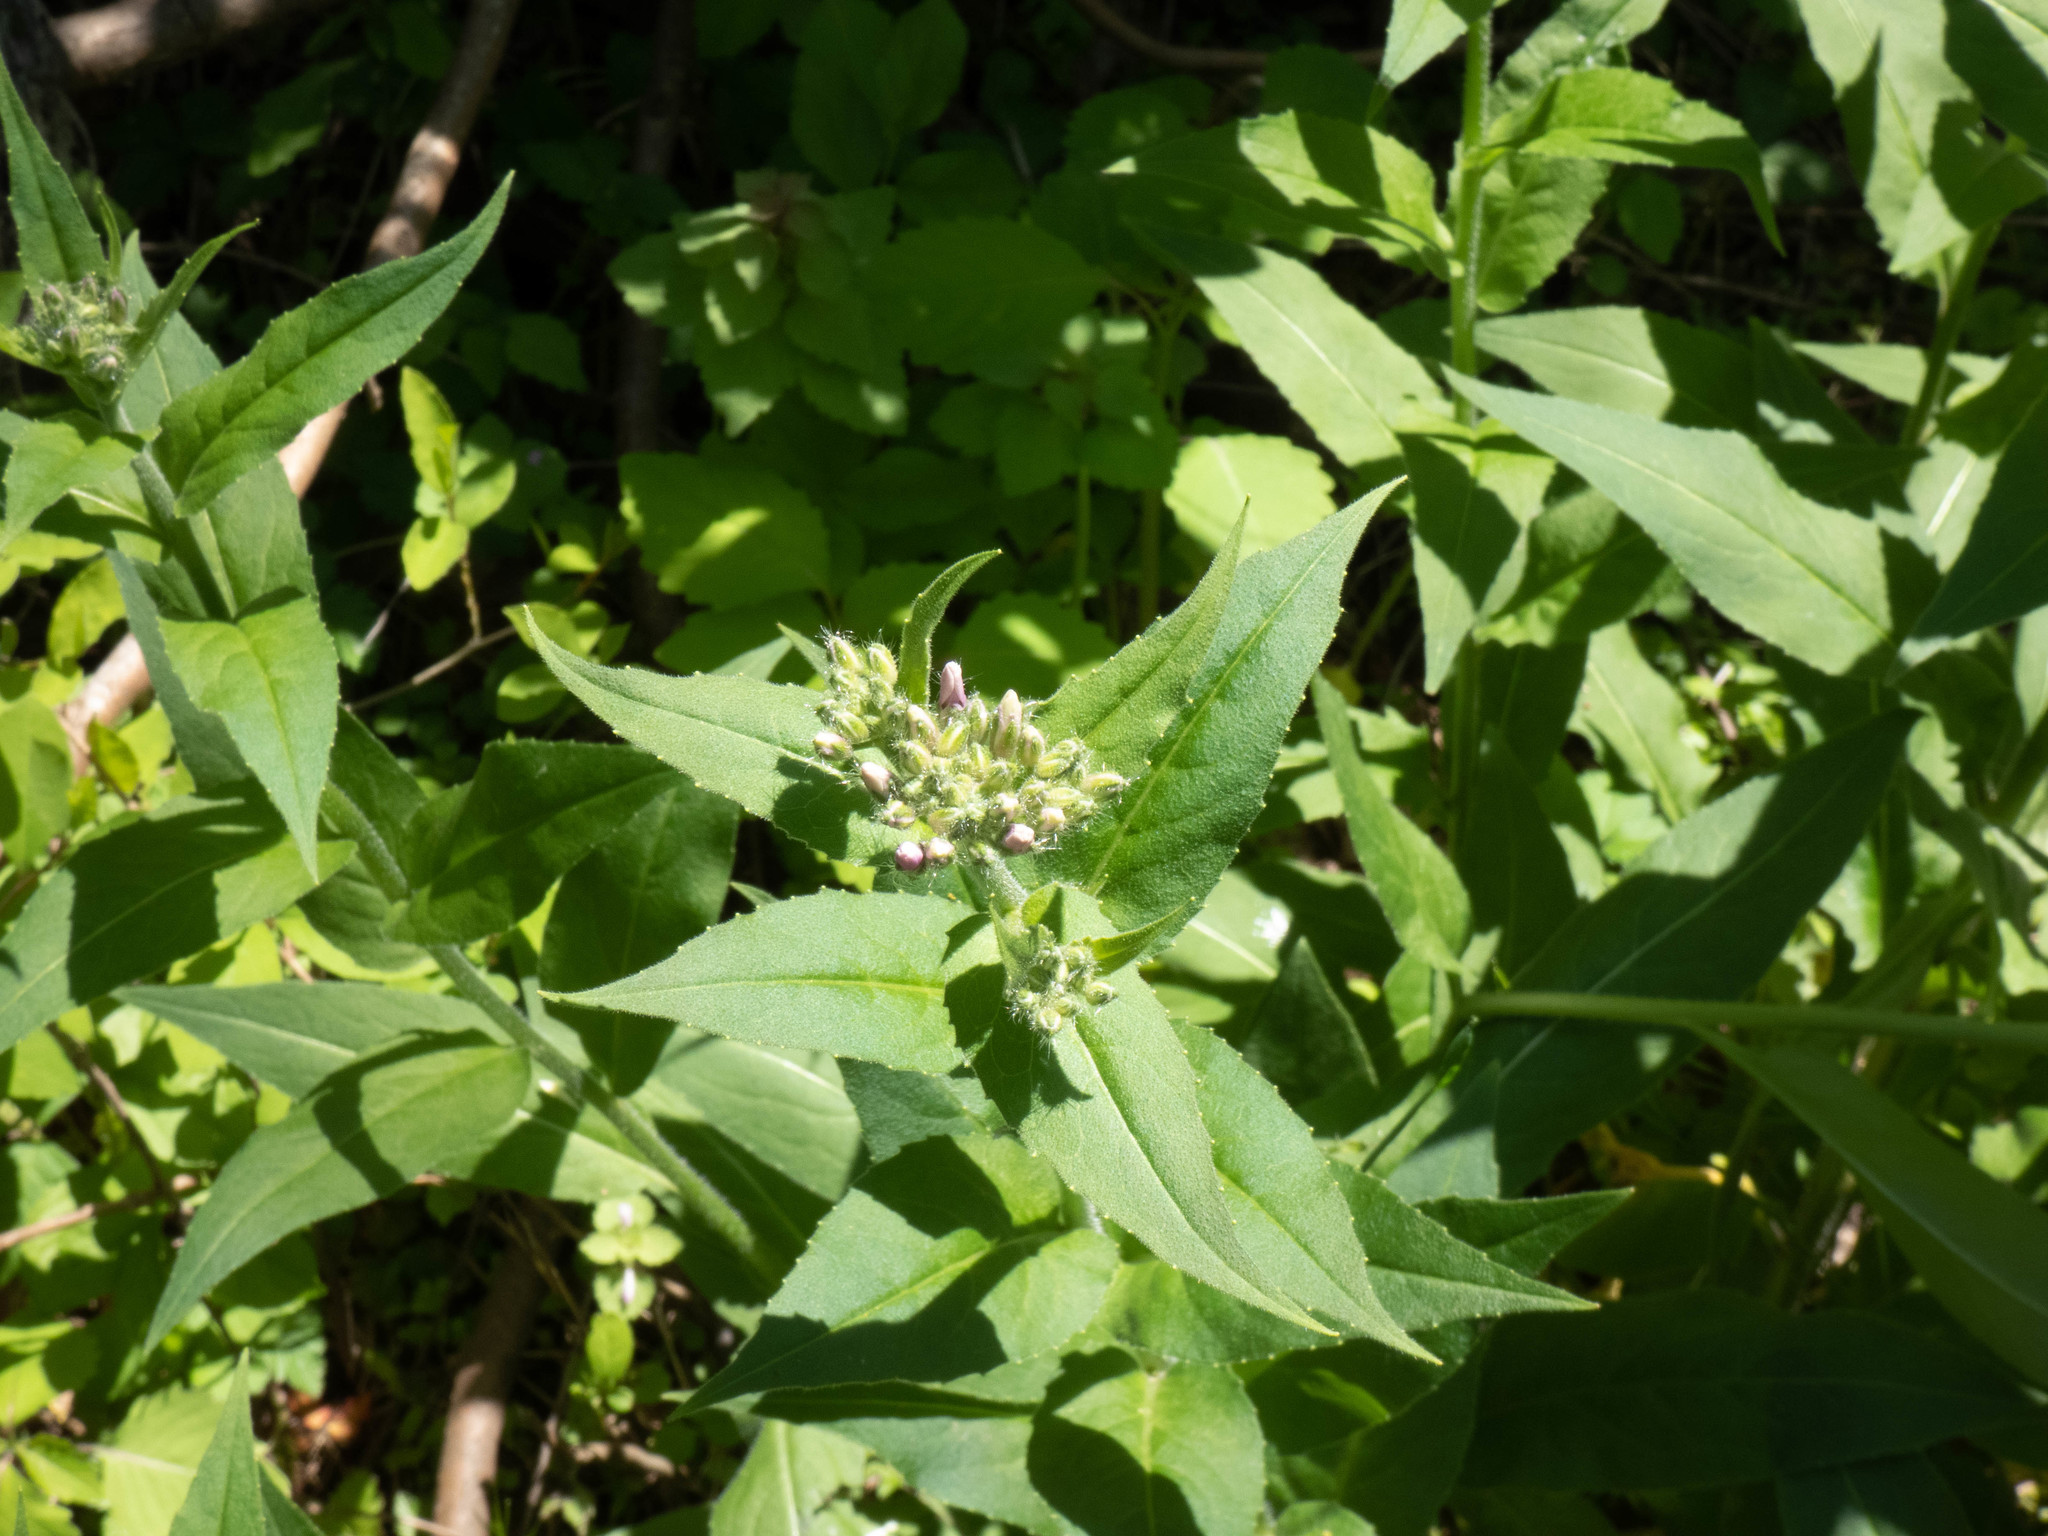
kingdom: Plantae
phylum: Tracheophyta
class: Magnoliopsida
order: Brassicales
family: Brassicaceae
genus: Hesperis
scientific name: Hesperis matronalis
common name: Dame's-violet
